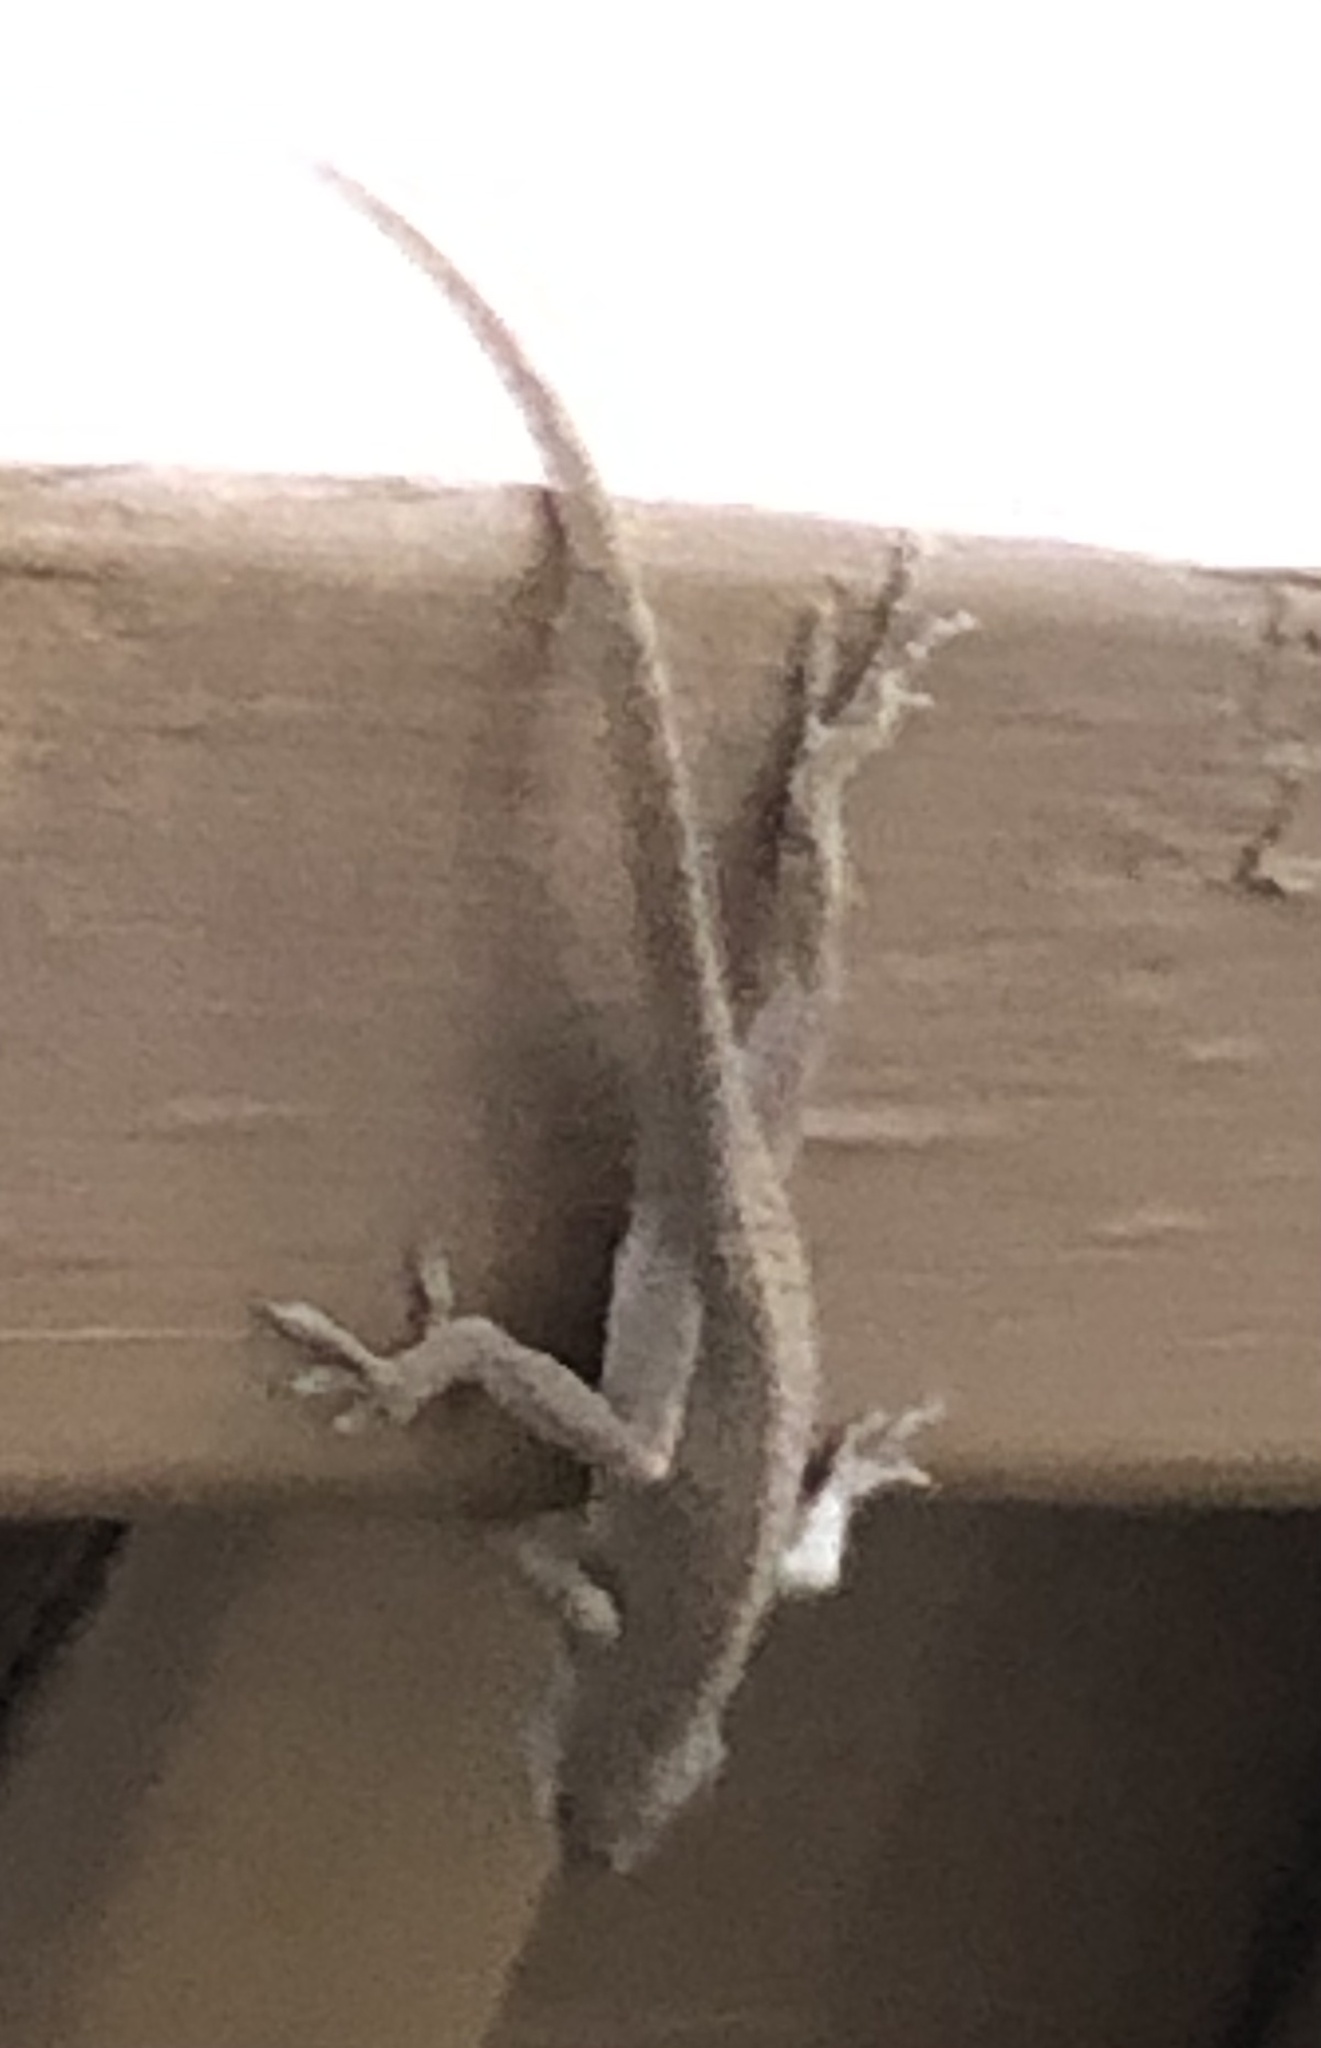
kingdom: Animalia
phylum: Chordata
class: Squamata
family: Dactyloidae
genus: Anolis
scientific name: Anolis carolinensis
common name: Green anole
